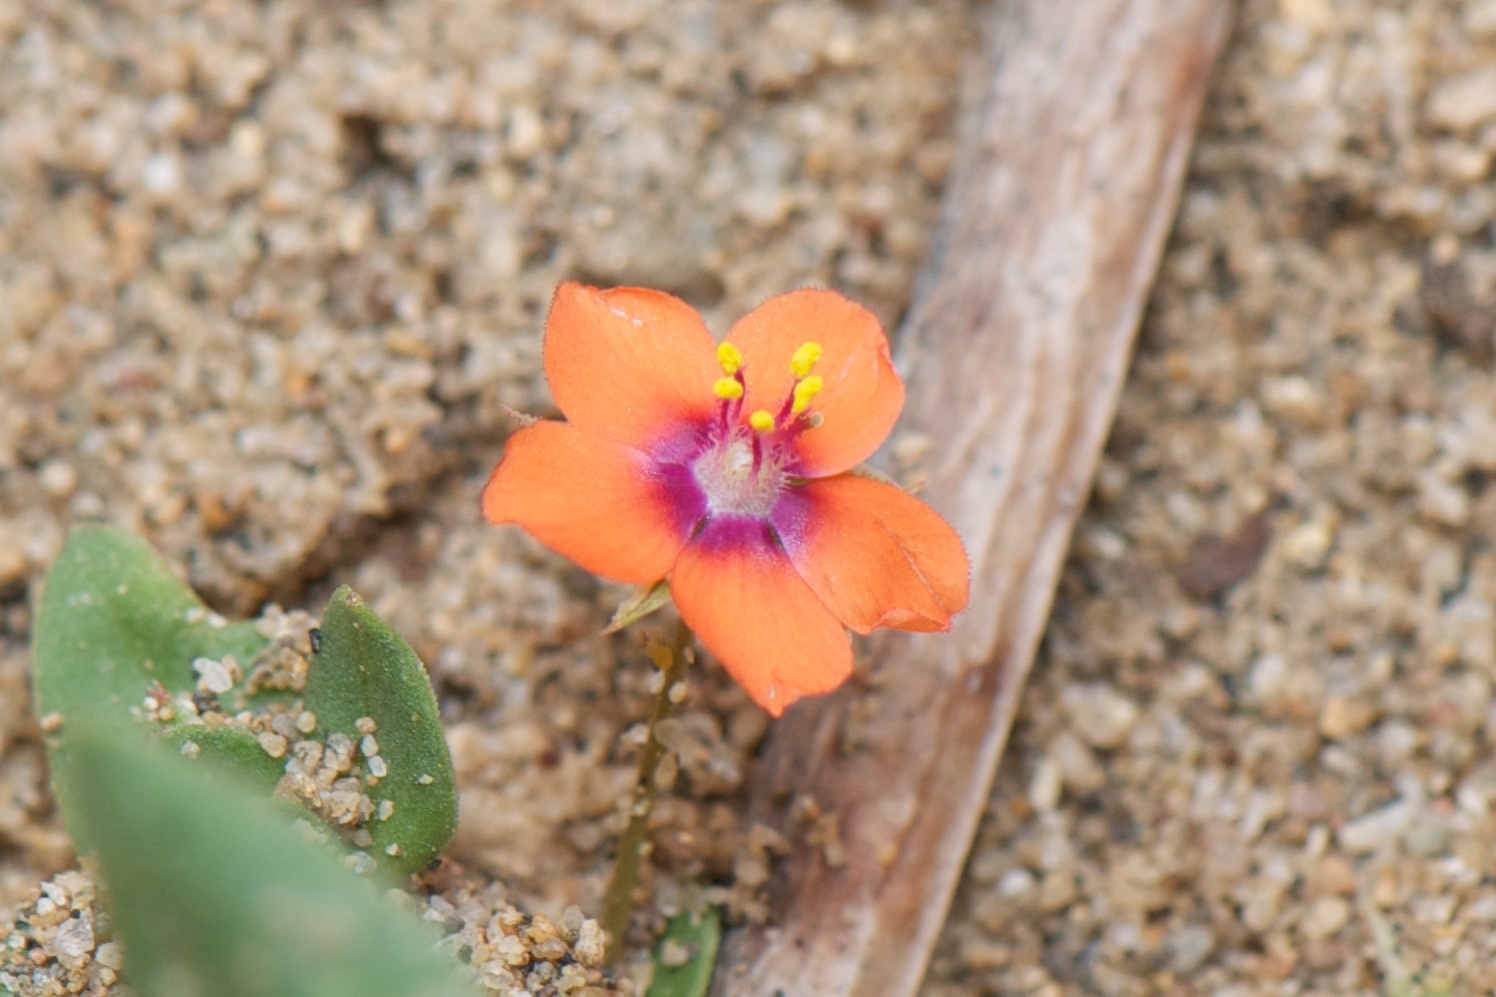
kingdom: Plantae
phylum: Tracheophyta
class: Magnoliopsida
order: Ericales
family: Primulaceae
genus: Lysimachia
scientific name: Lysimachia arvensis
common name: Scarlet pimpernel
